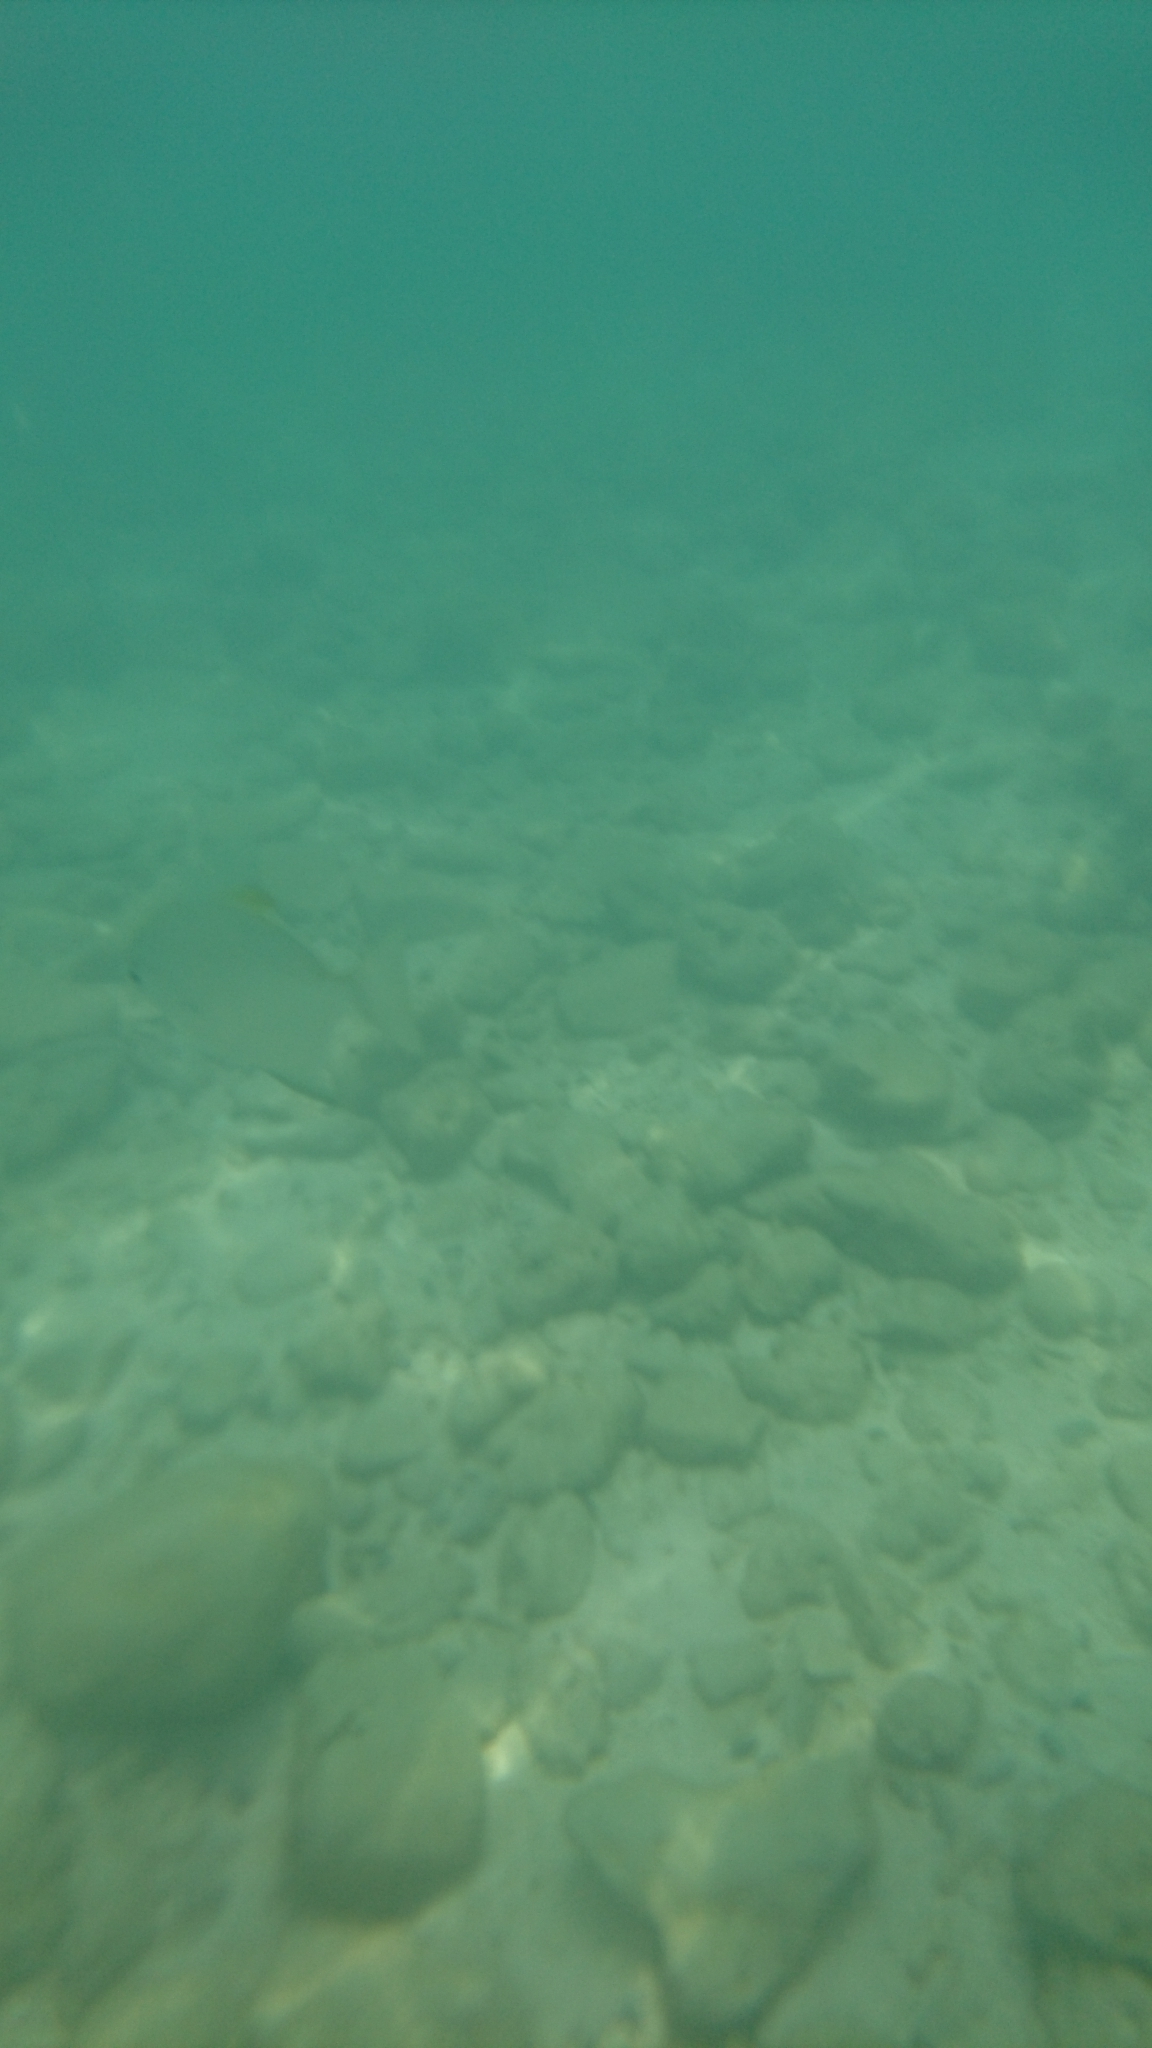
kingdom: Animalia
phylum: Chordata
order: Perciformes
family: Monodactylidae
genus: Monodactylus
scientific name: Monodactylus argenteus
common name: Silver moony
